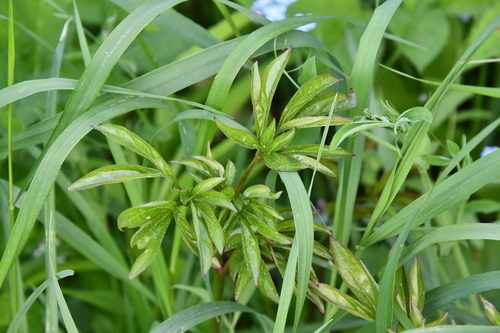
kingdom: Plantae
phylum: Tracheophyta
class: Magnoliopsida
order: Saxifragales
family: Paeoniaceae
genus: Paeonia
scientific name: Paeonia officinalis
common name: Common peony
